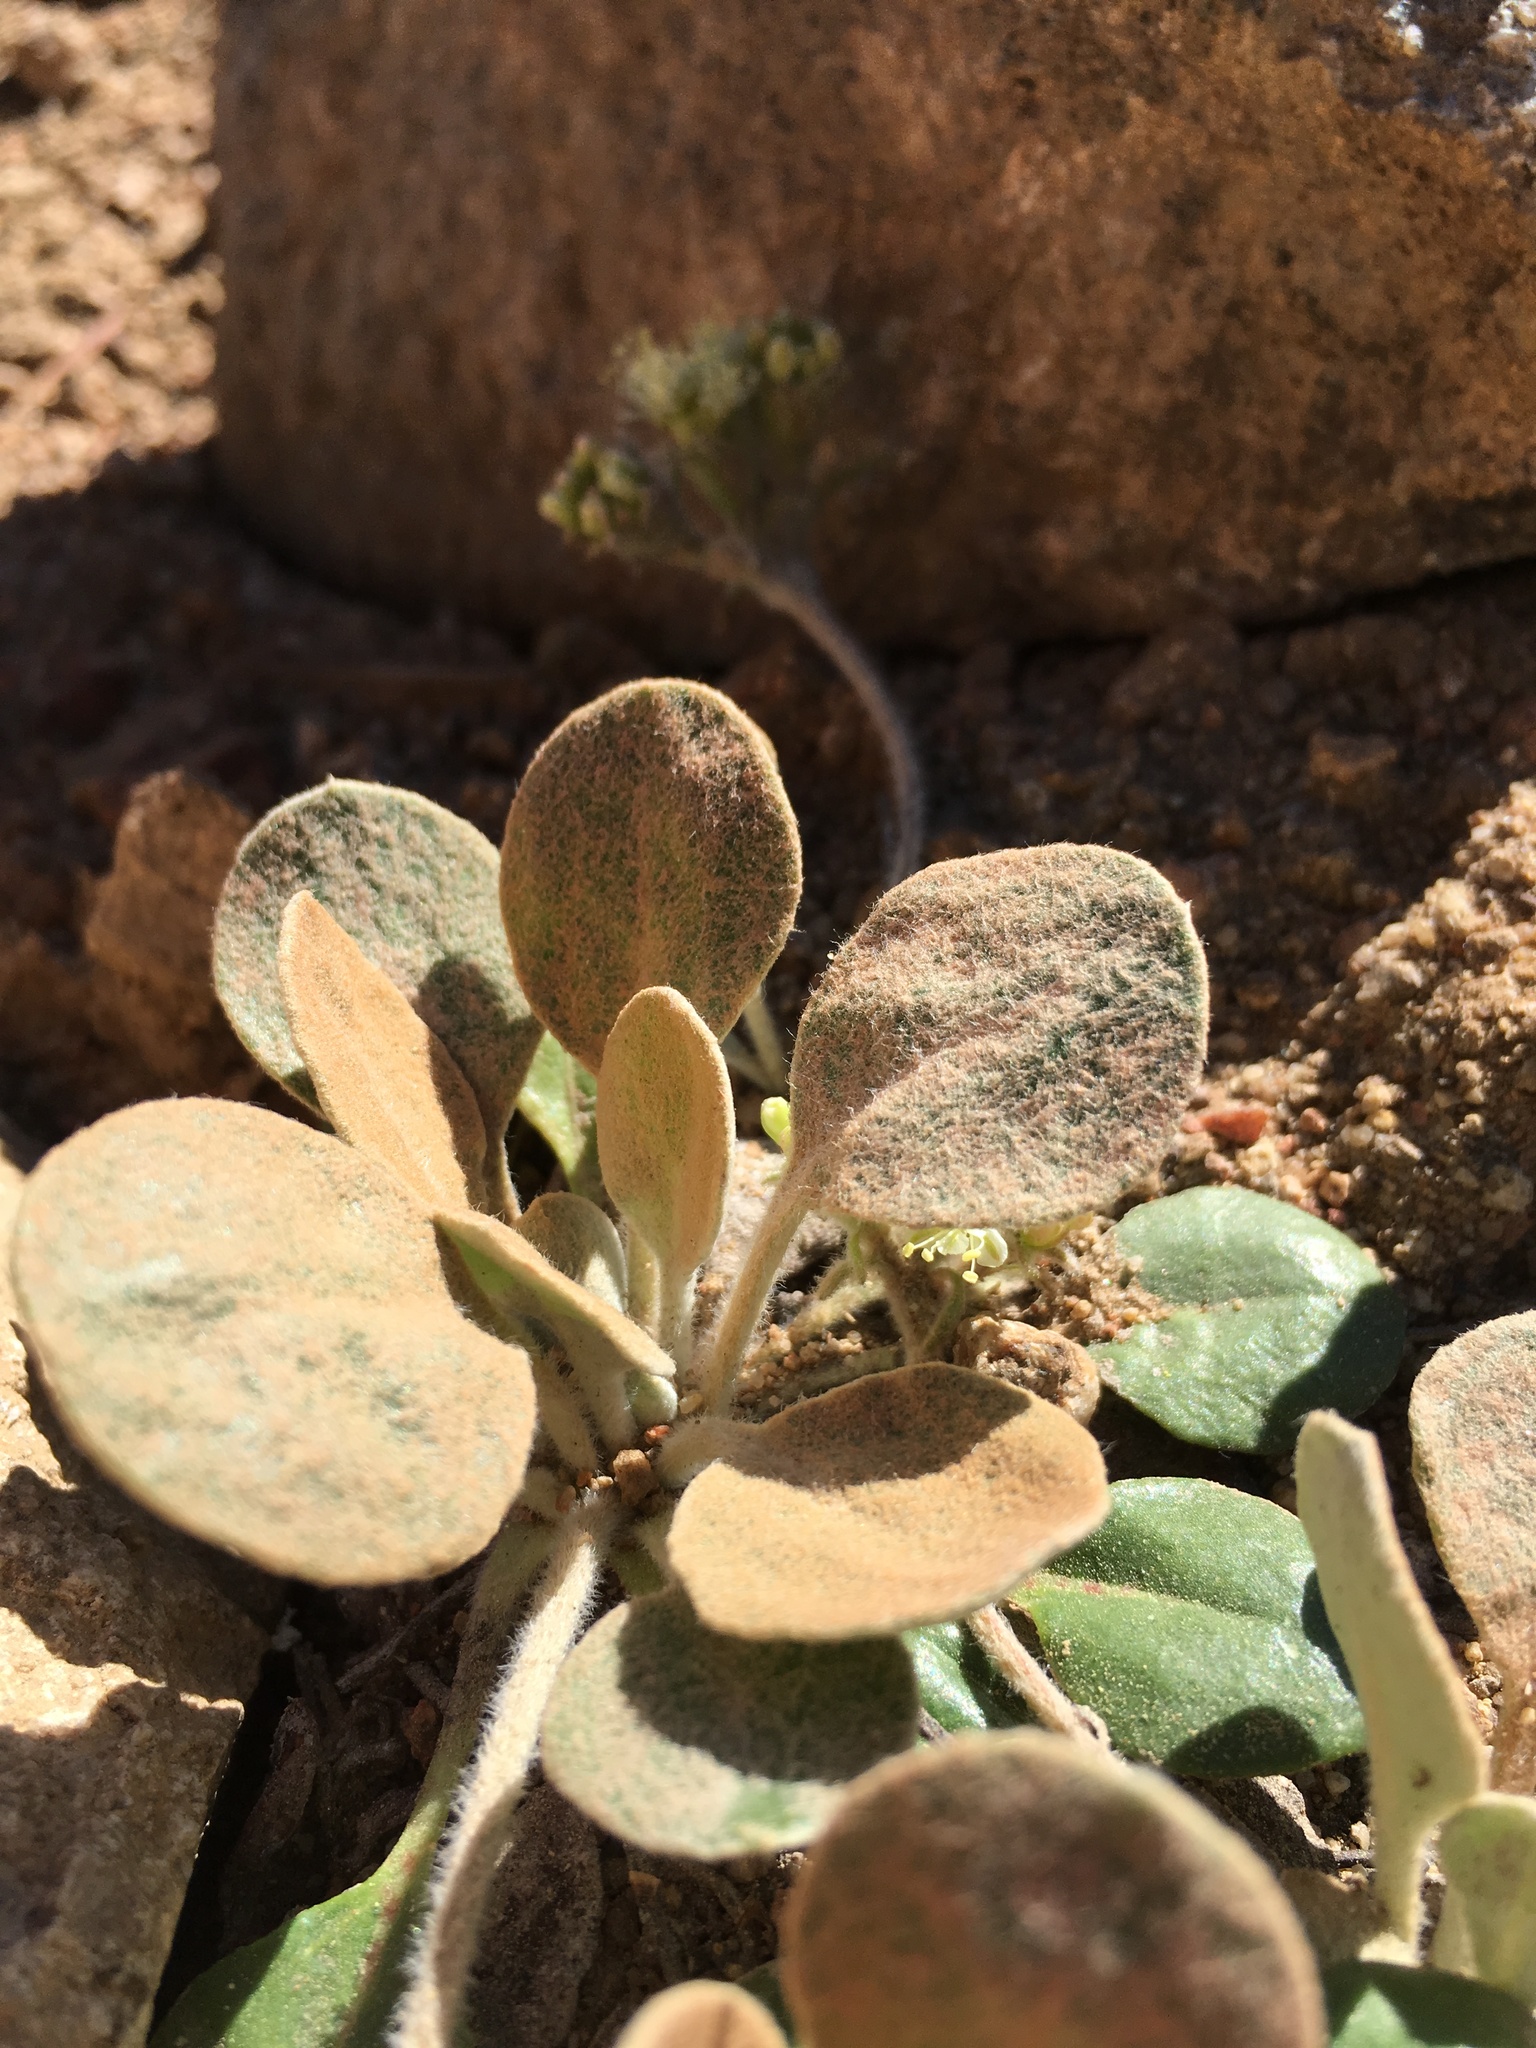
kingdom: Plantae
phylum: Tracheophyta
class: Magnoliopsida
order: Caryophyllales
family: Polygonaceae
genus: Eriogonum
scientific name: Eriogonum lobbii
